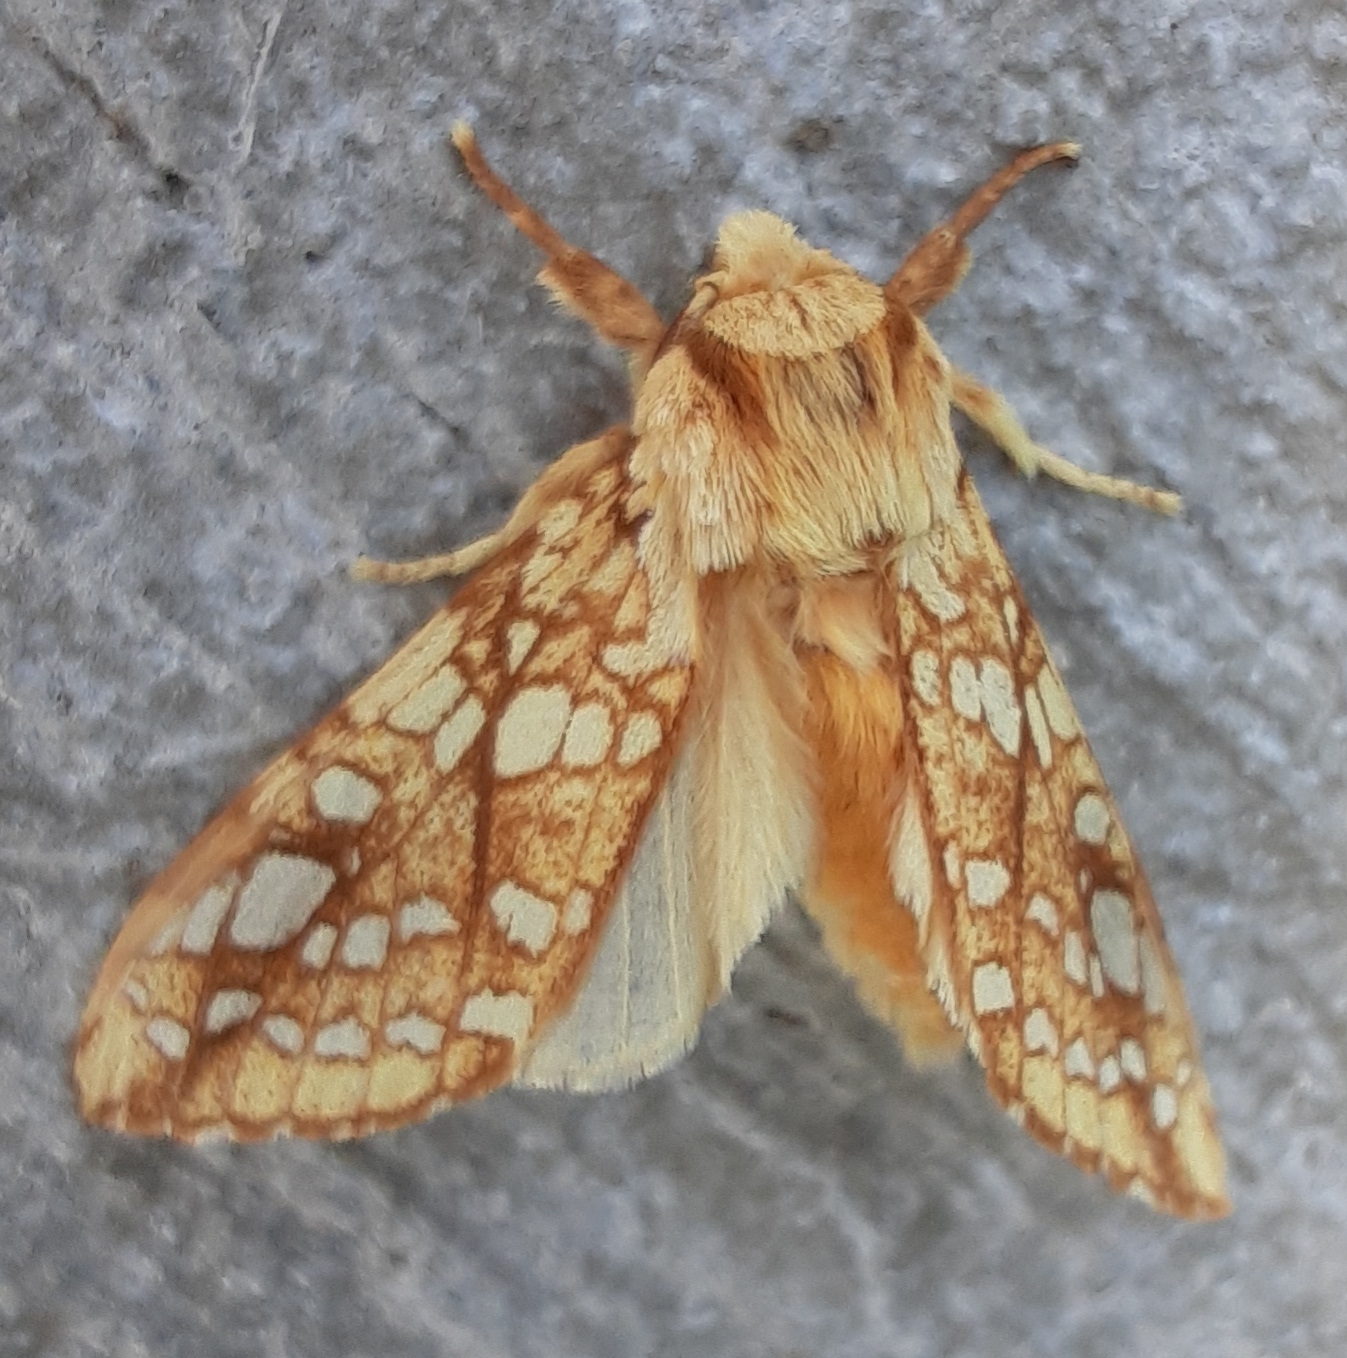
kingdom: Animalia
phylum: Arthropoda
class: Insecta
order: Lepidoptera
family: Erebidae
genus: Lophocampa
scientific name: Lophocampa caryae
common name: Hickory tussock moth
